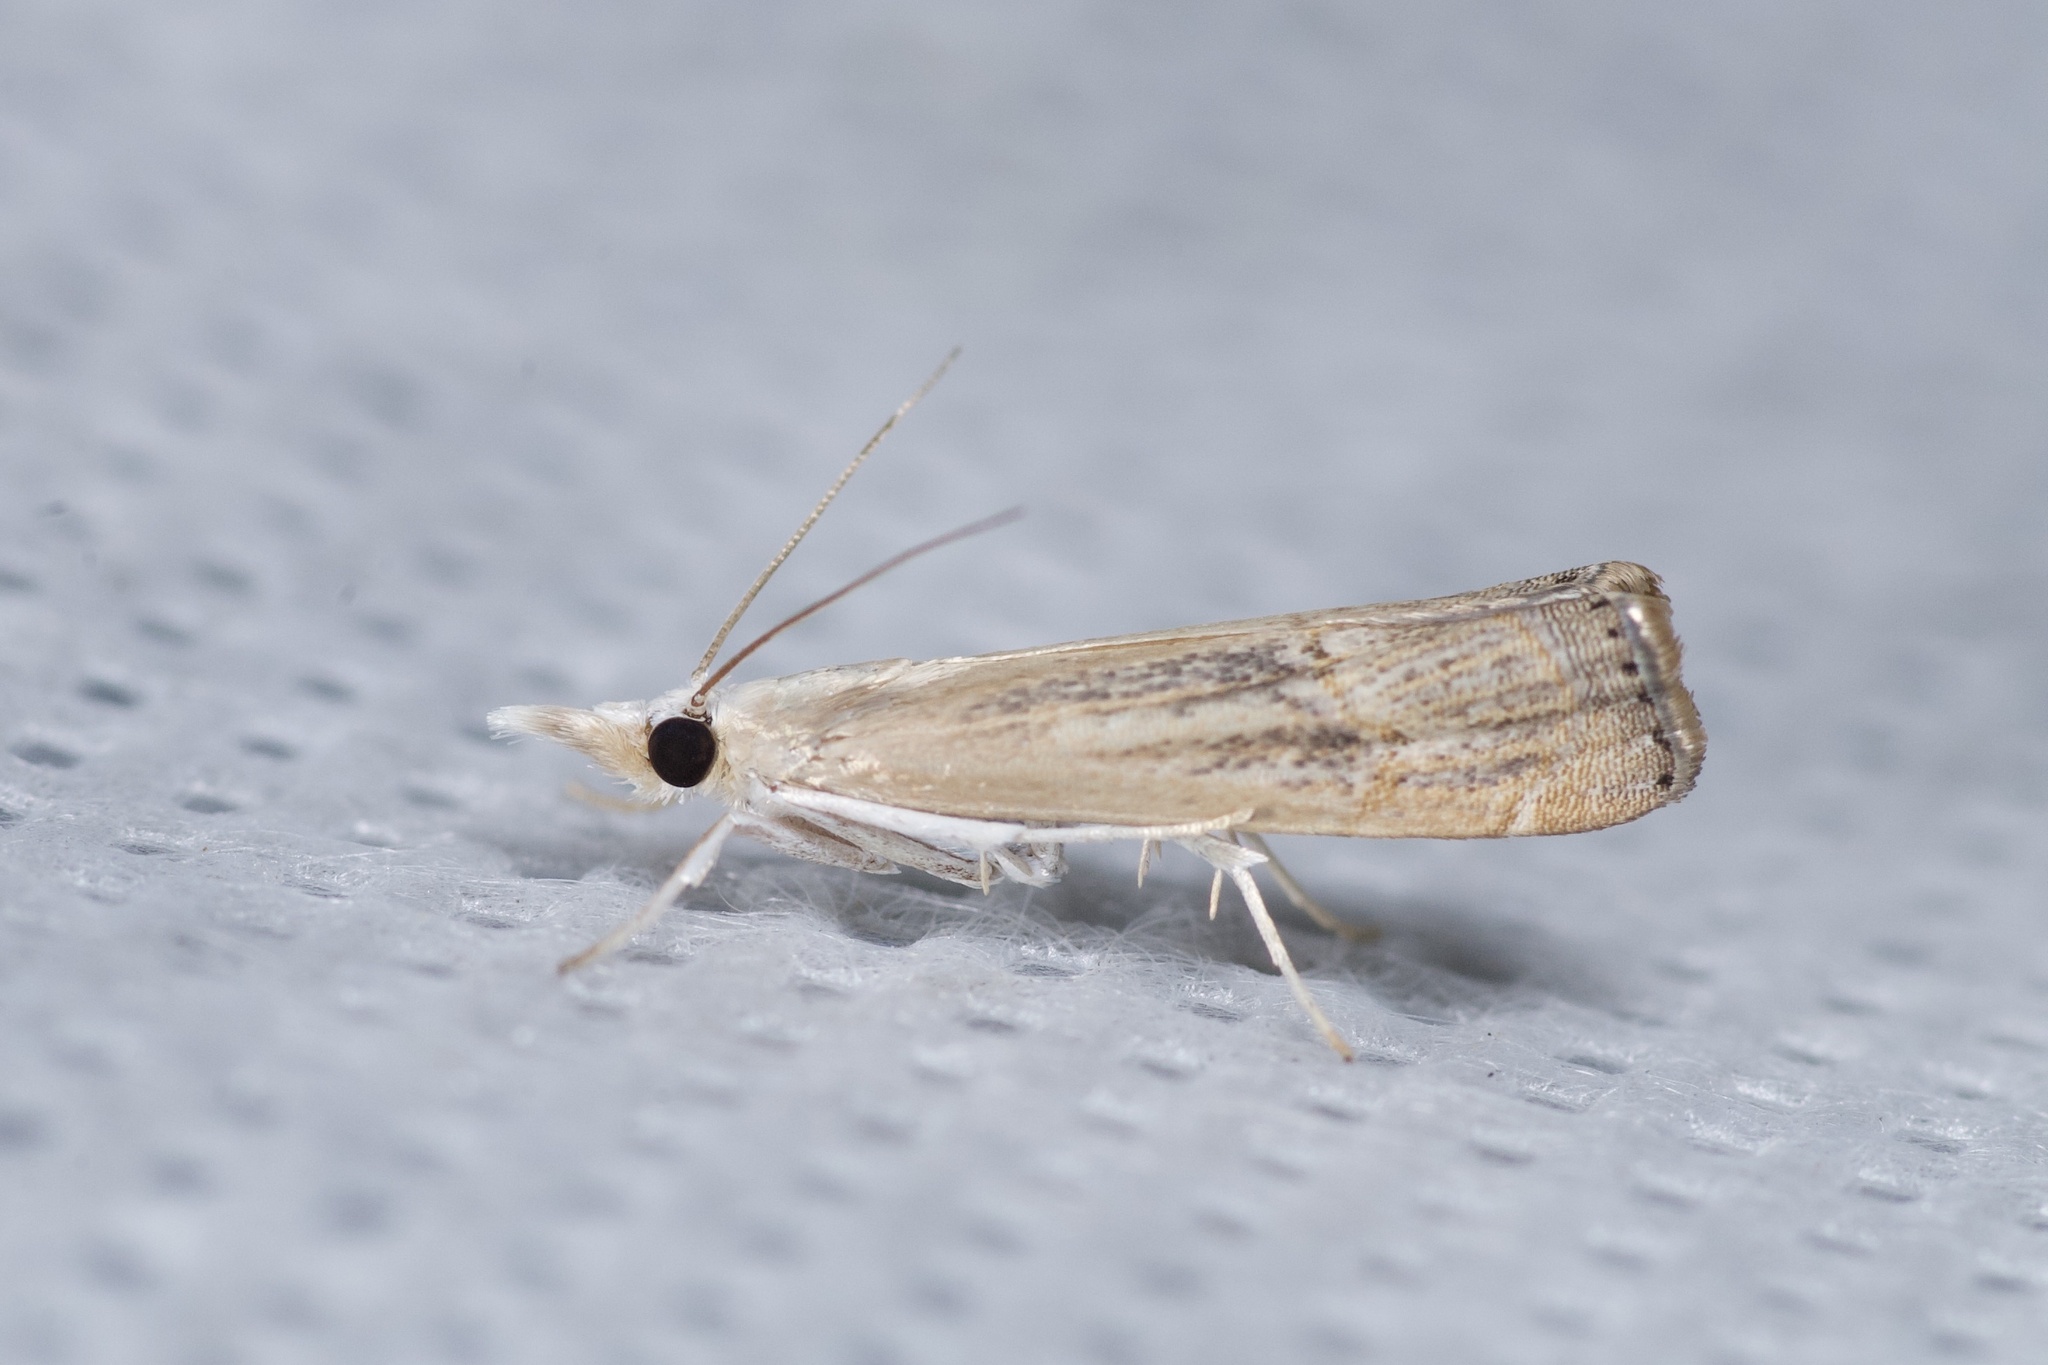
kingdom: Animalia
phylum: Arthropoda
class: Insecta
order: Lepidoptera
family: Crambidae
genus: Parapediasia
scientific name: Parapediasia teterellus
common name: Bluegrass webworm moth
